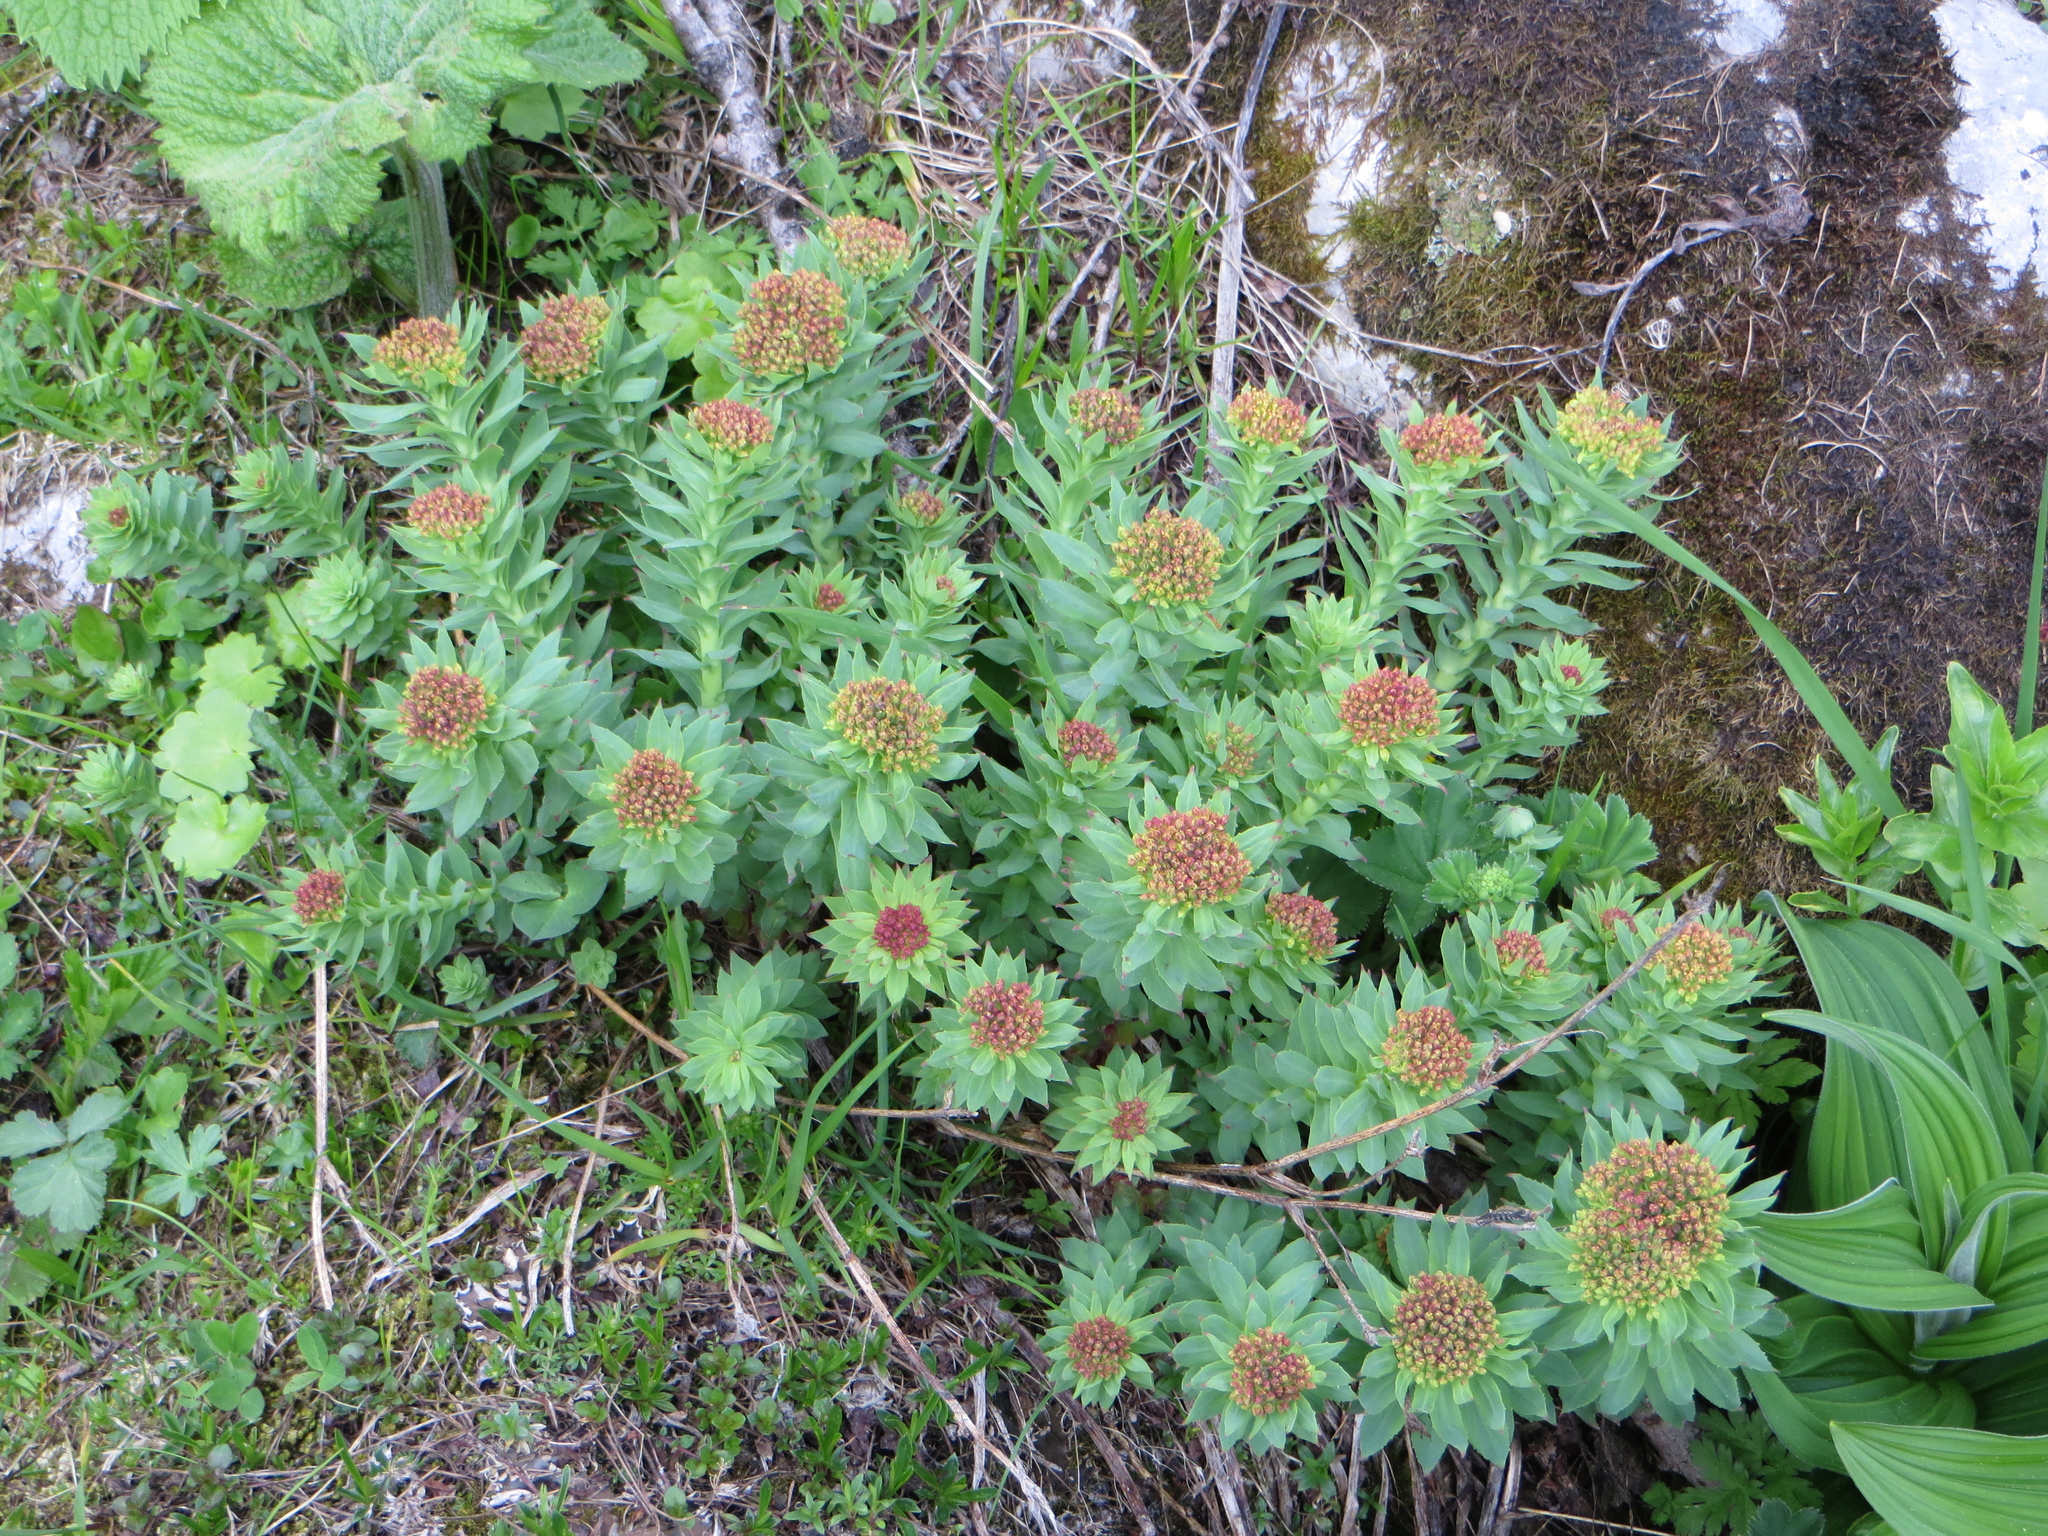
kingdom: Plantae
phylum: Tracheophyta
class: Magnoliopsida
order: Saxifragales
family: Crassulaceae
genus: Rhodiola
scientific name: Rhodiola rosea
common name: Roseroot
